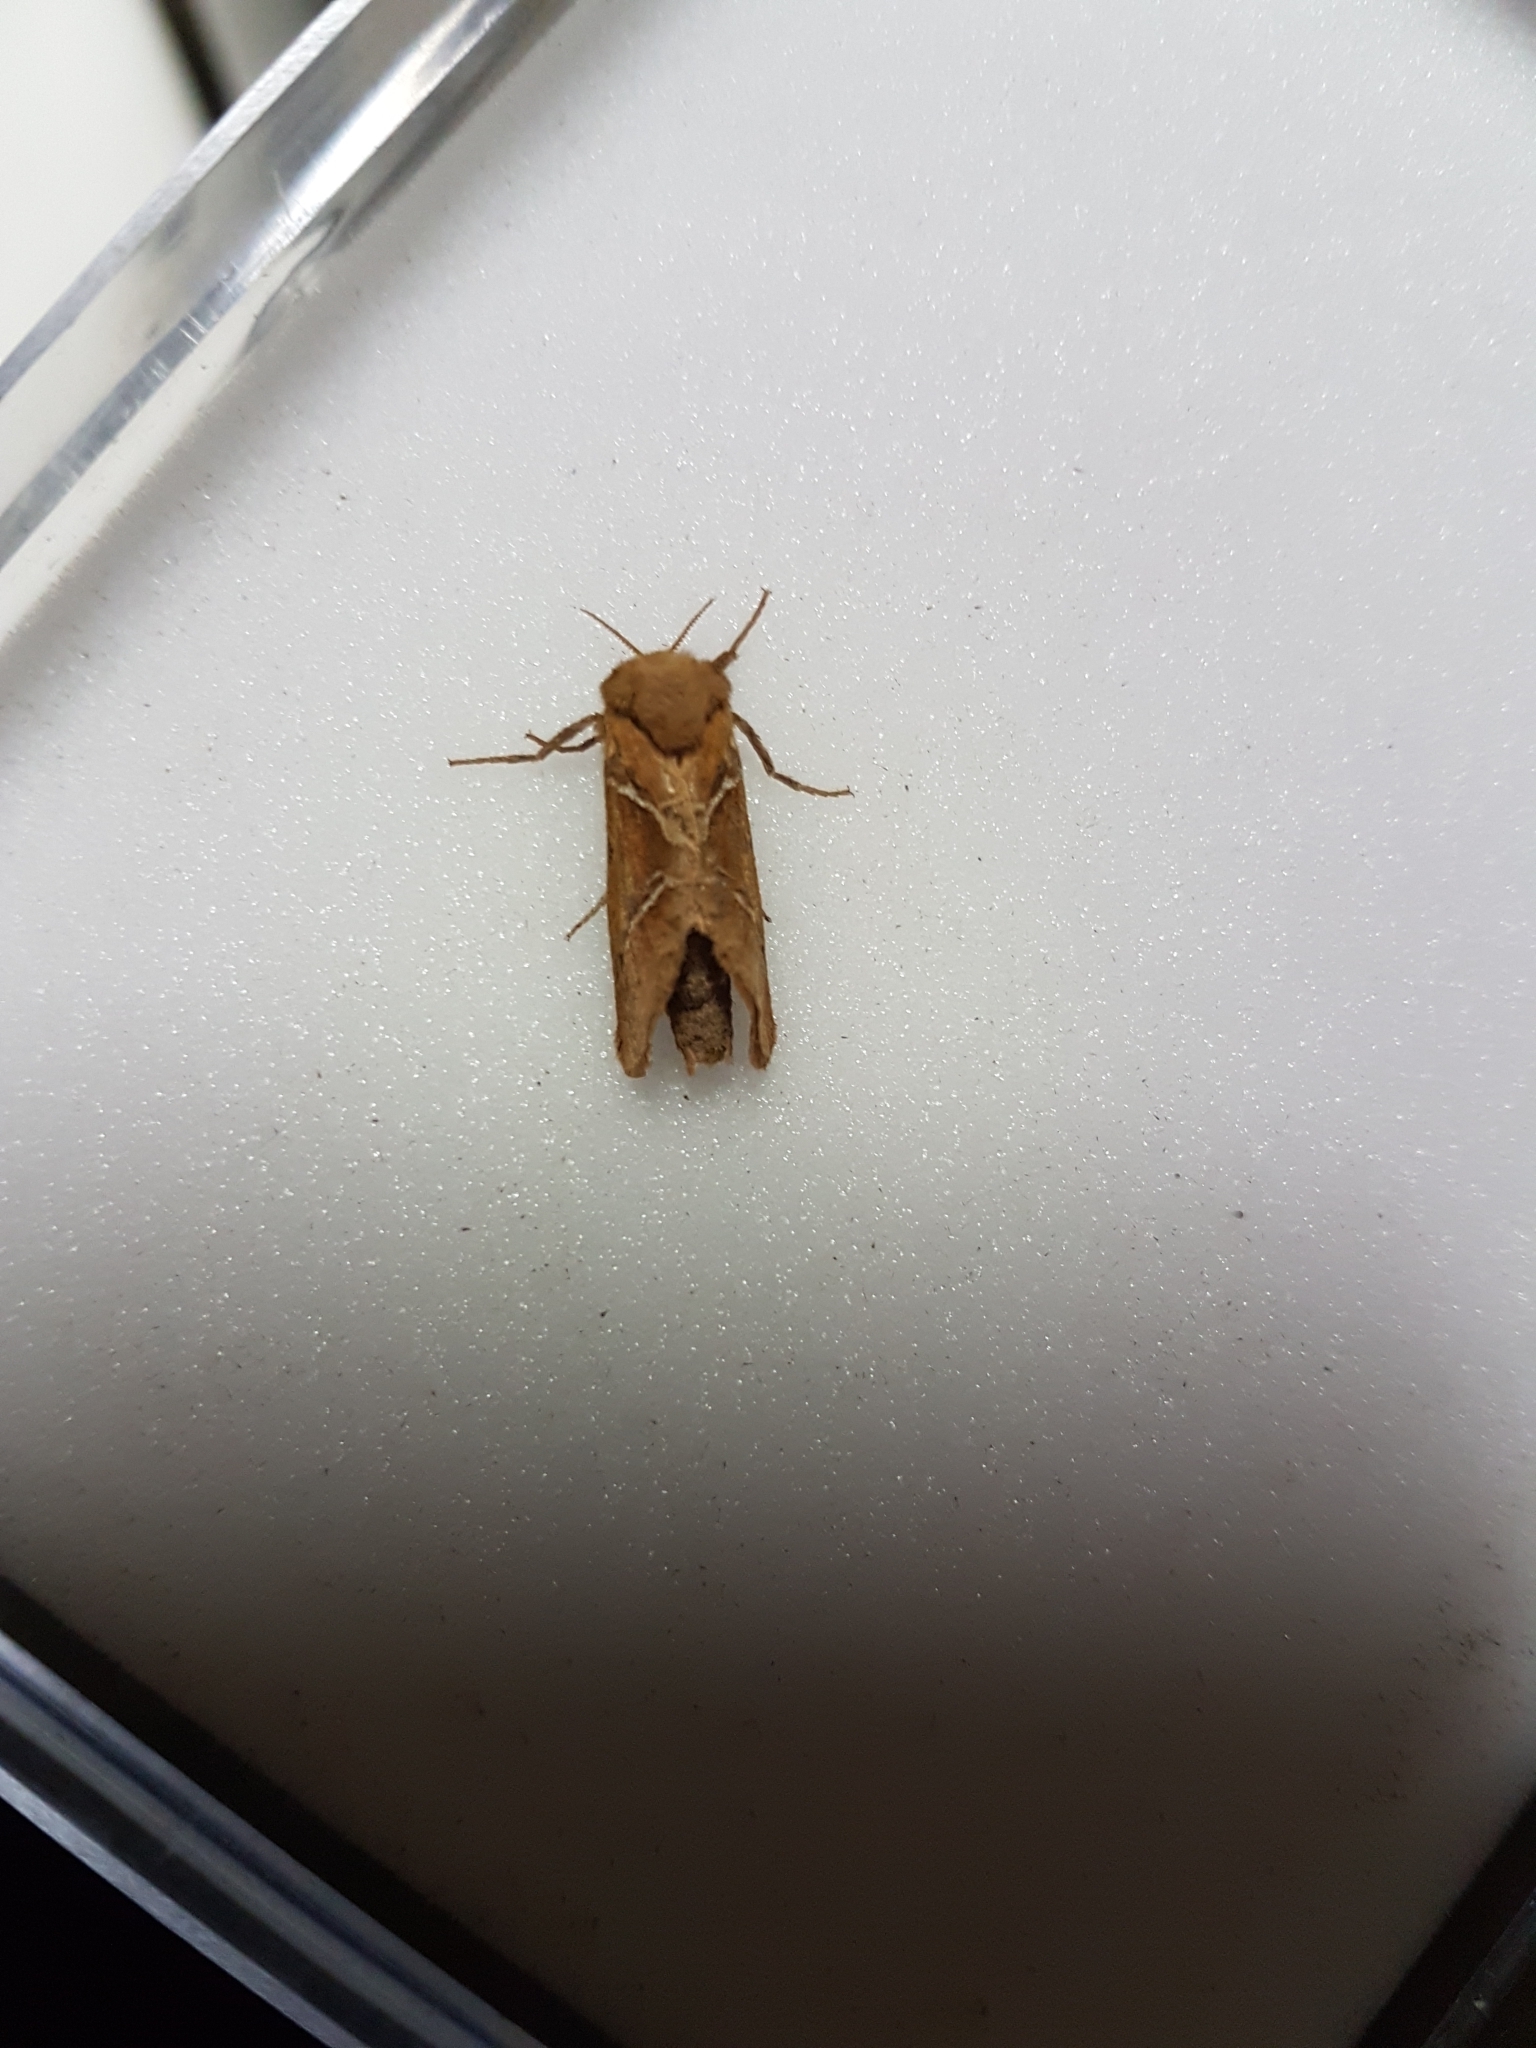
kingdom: Animalia
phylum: Arthropoda
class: Insecta
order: Lepidoptera
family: Hepialidae
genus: Triodia
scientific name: Triodia sylvina
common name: Orange swift
